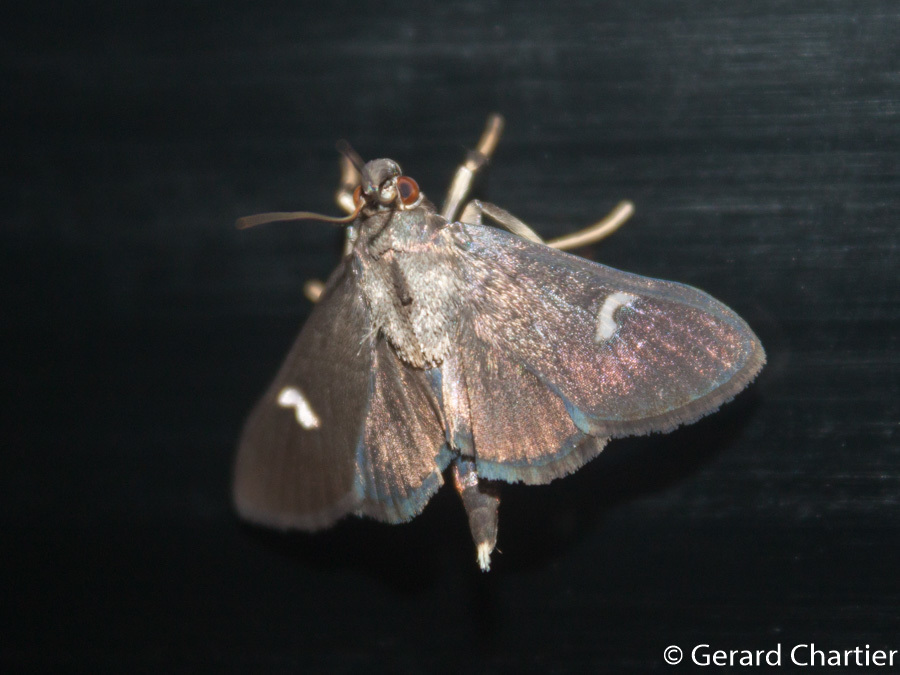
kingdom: Animalia
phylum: Arthropoda
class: Insecta
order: Lepidoptera
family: Crambidae
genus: Nosophora
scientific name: Nosophora dispilalis
